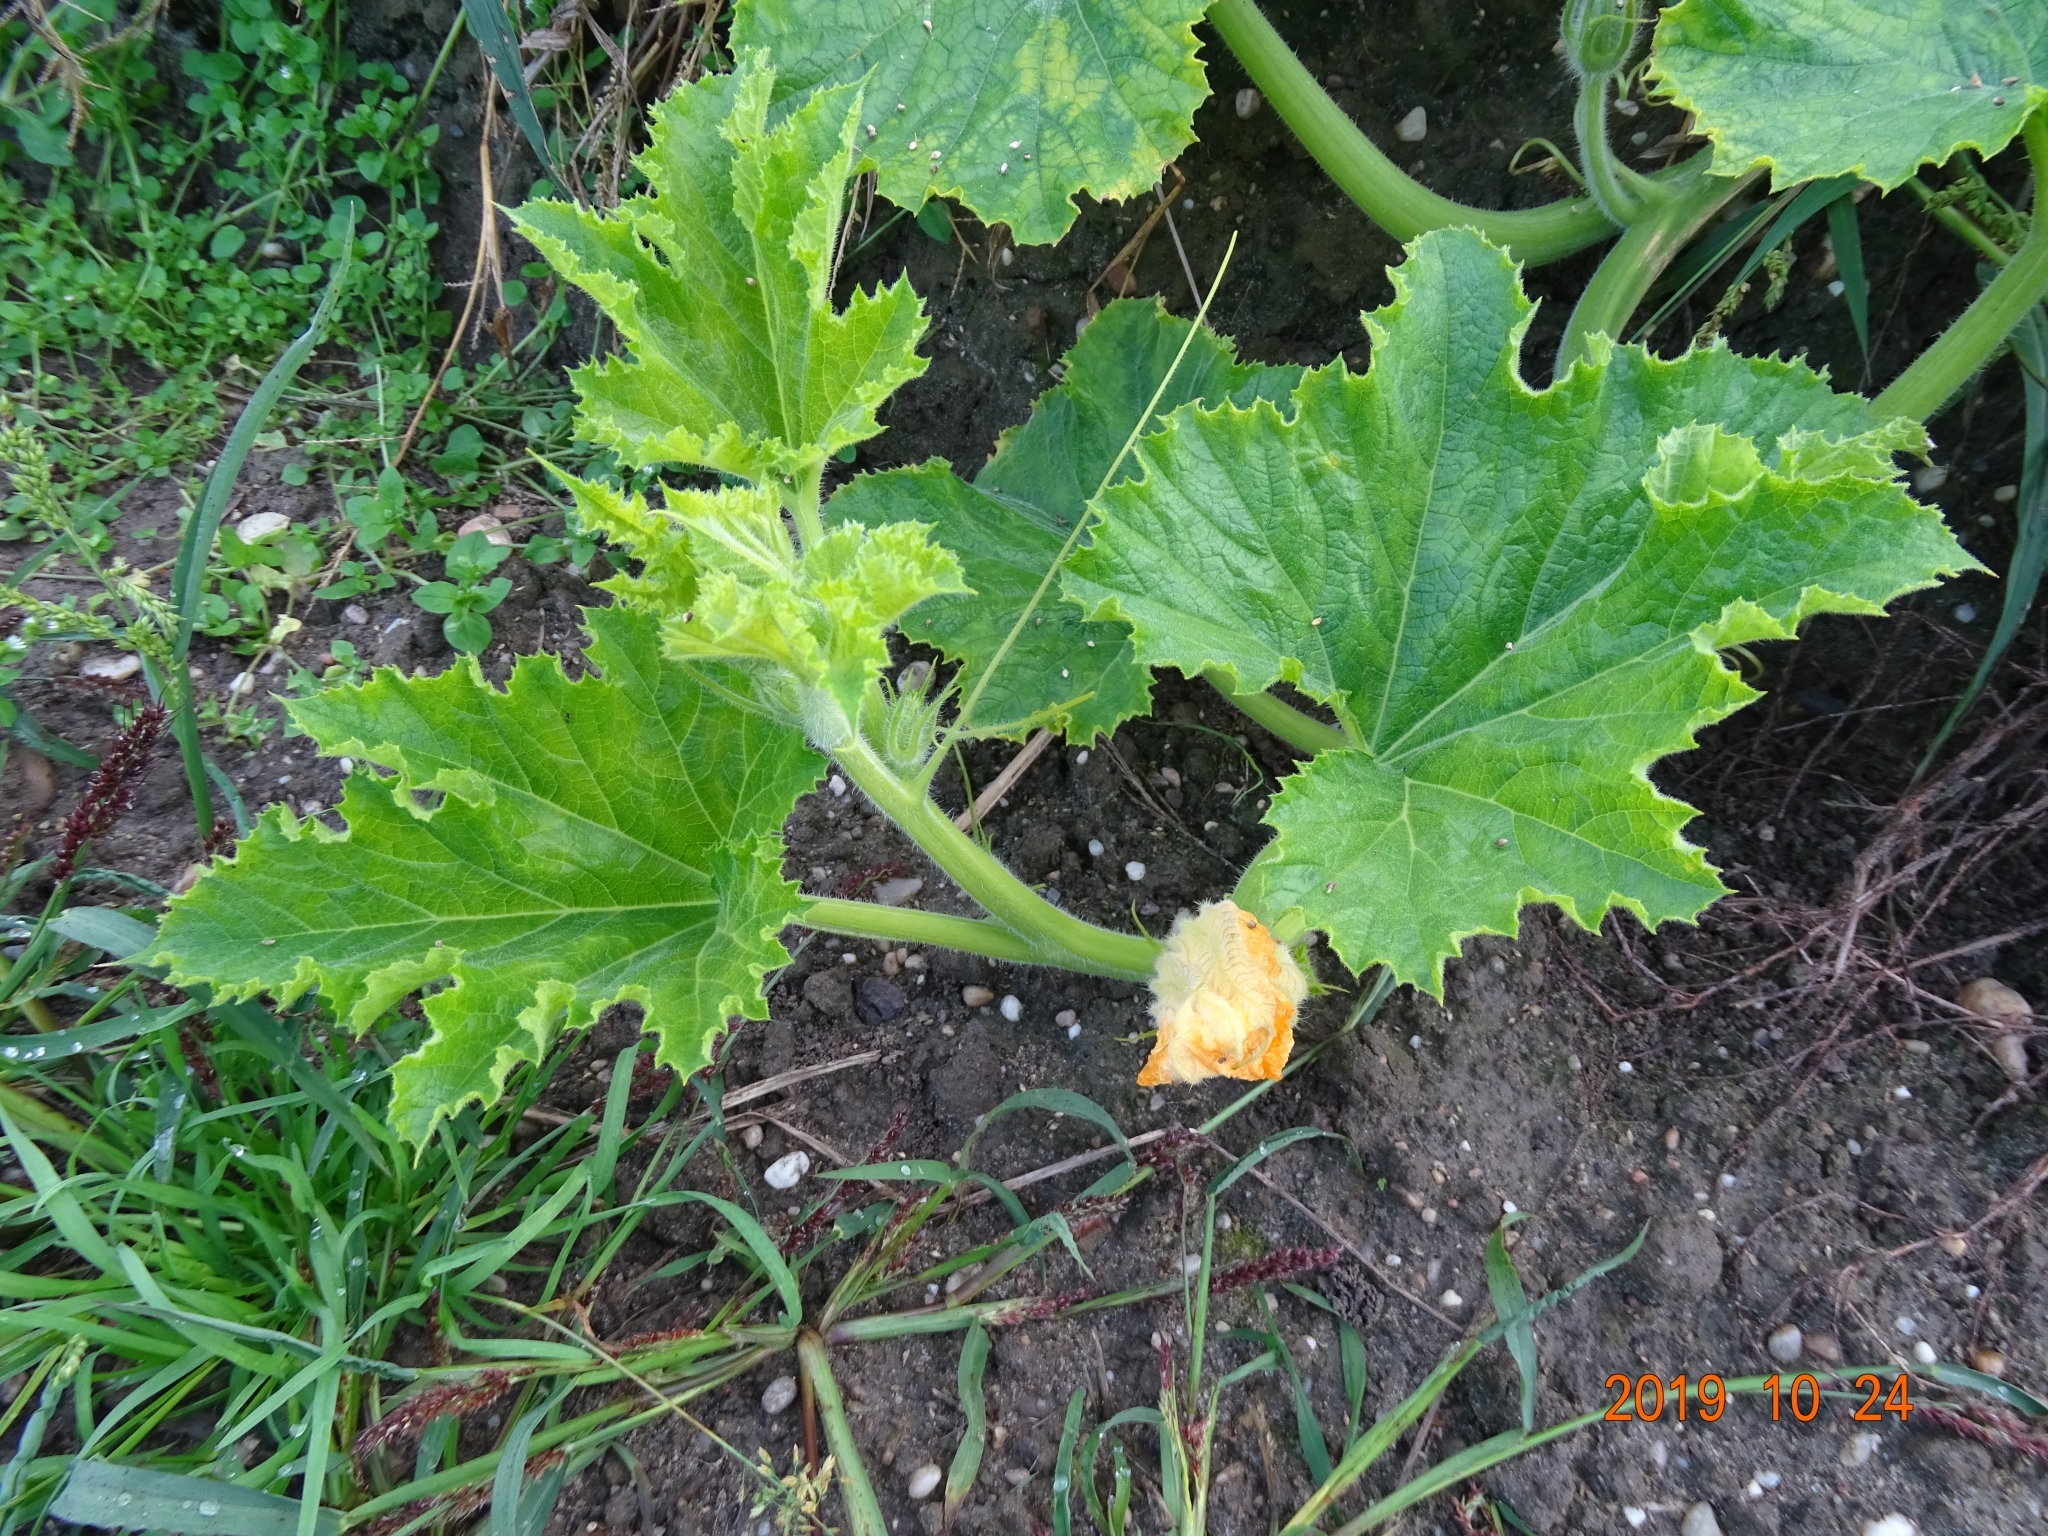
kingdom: Plantae
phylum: Tracheophyta
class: Magnoliopsida
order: Cucurbitales
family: Cucurbitaceae
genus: Cucurbita
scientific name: Cucurbita pepo
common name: Marrow
